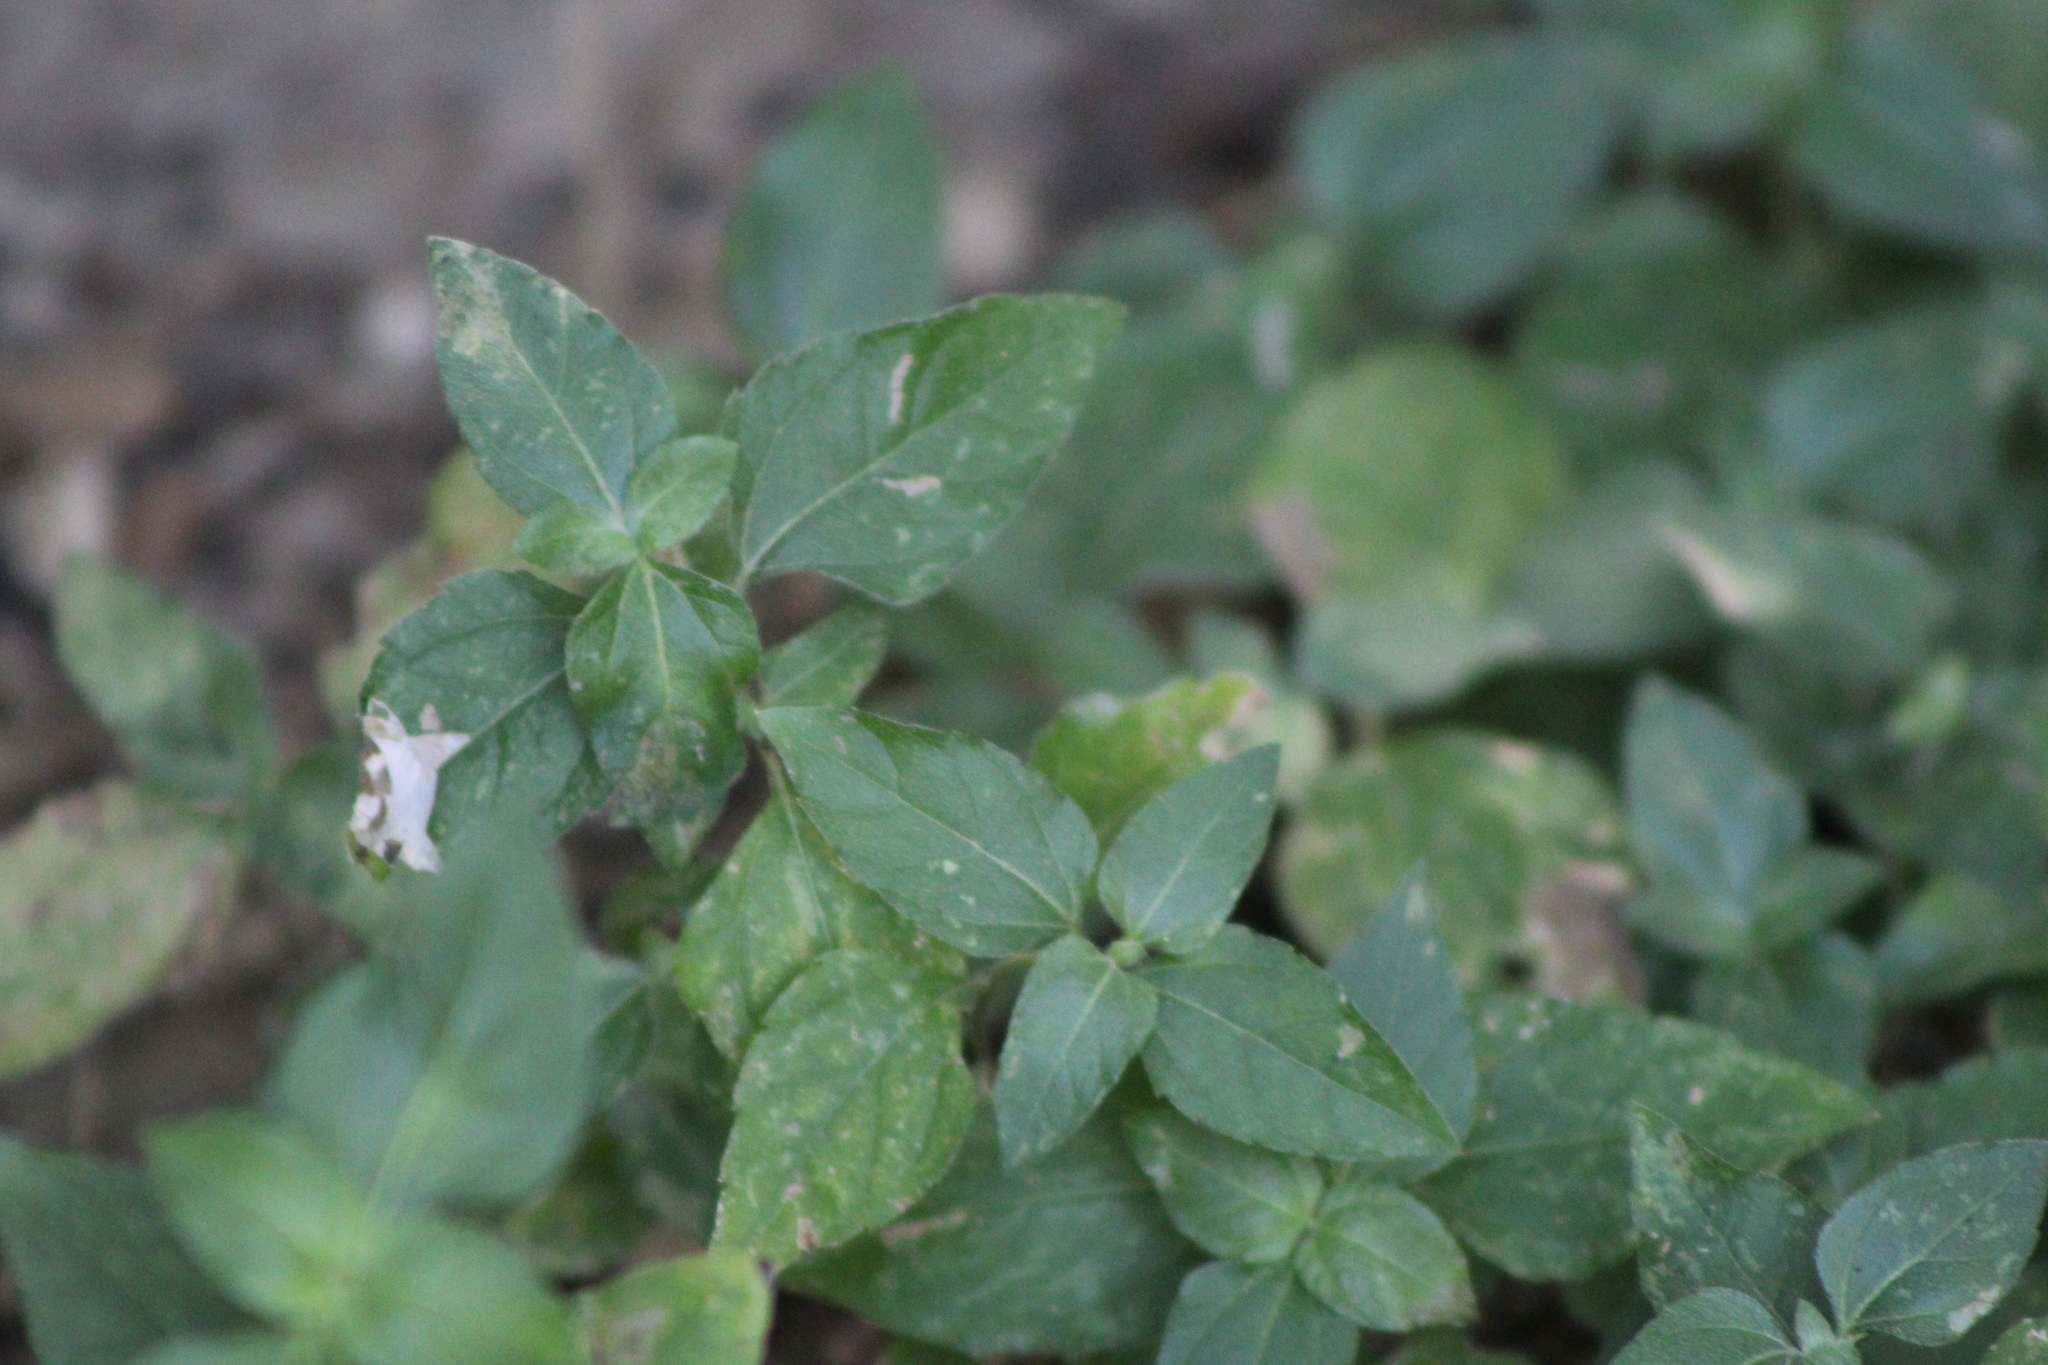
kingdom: Plantae
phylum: Tracheophyta
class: Magnoliopsida
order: Asterales
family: Asteraceae
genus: Calyptocarpus
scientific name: Calyptocarpus vialis
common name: Straggler daisy
